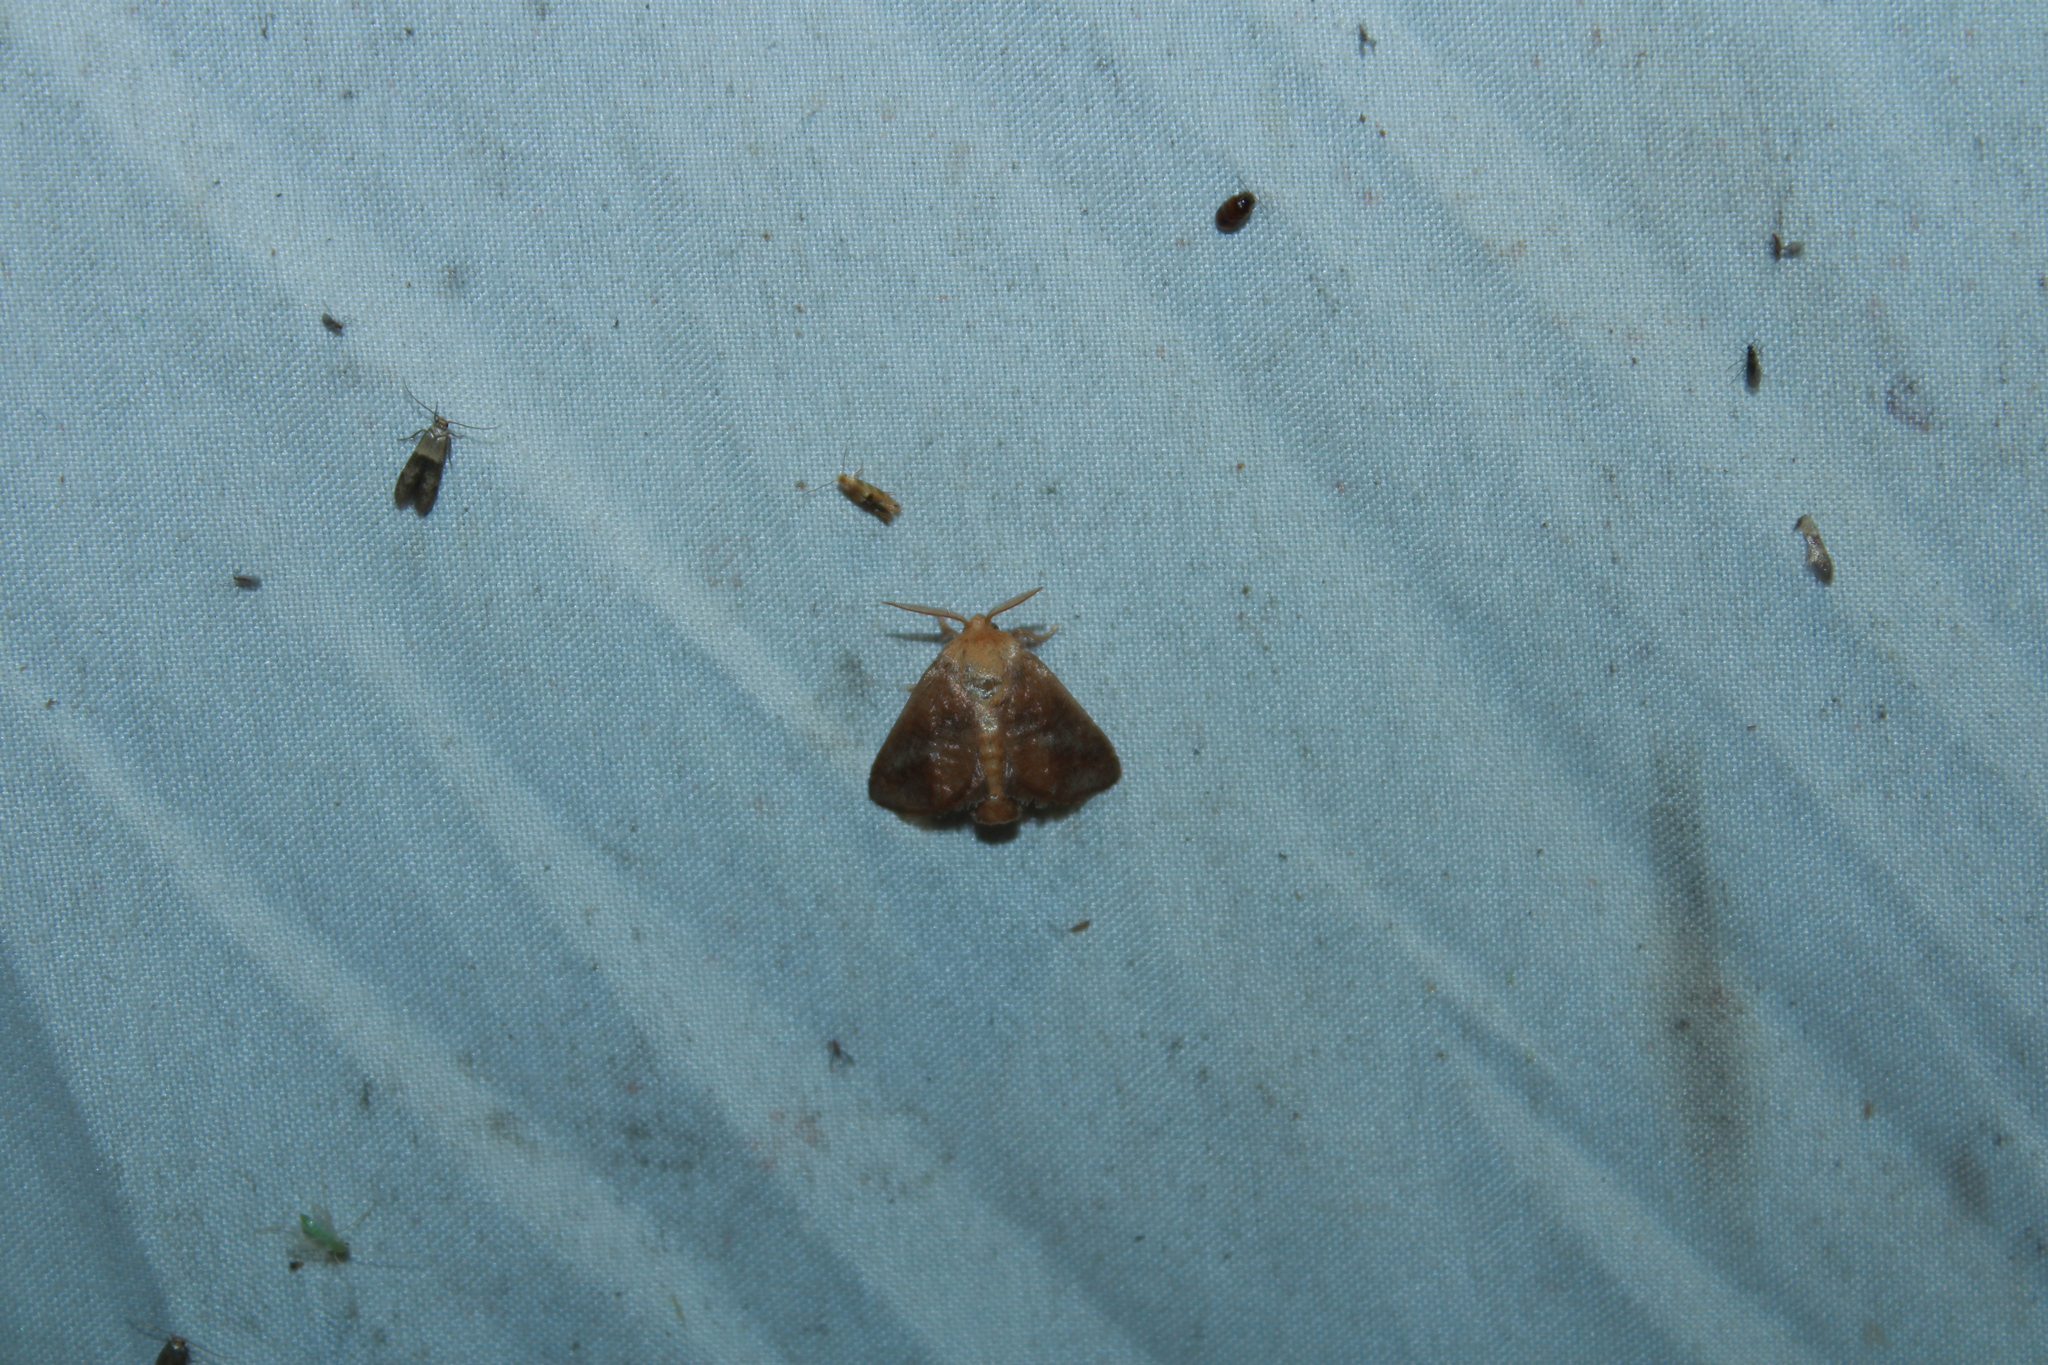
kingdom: Animalia
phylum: Arthropoda
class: Insecta
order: Lepidoptera
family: Limacodidae
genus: Isa
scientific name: Isa textula
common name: Crowned slug moth
